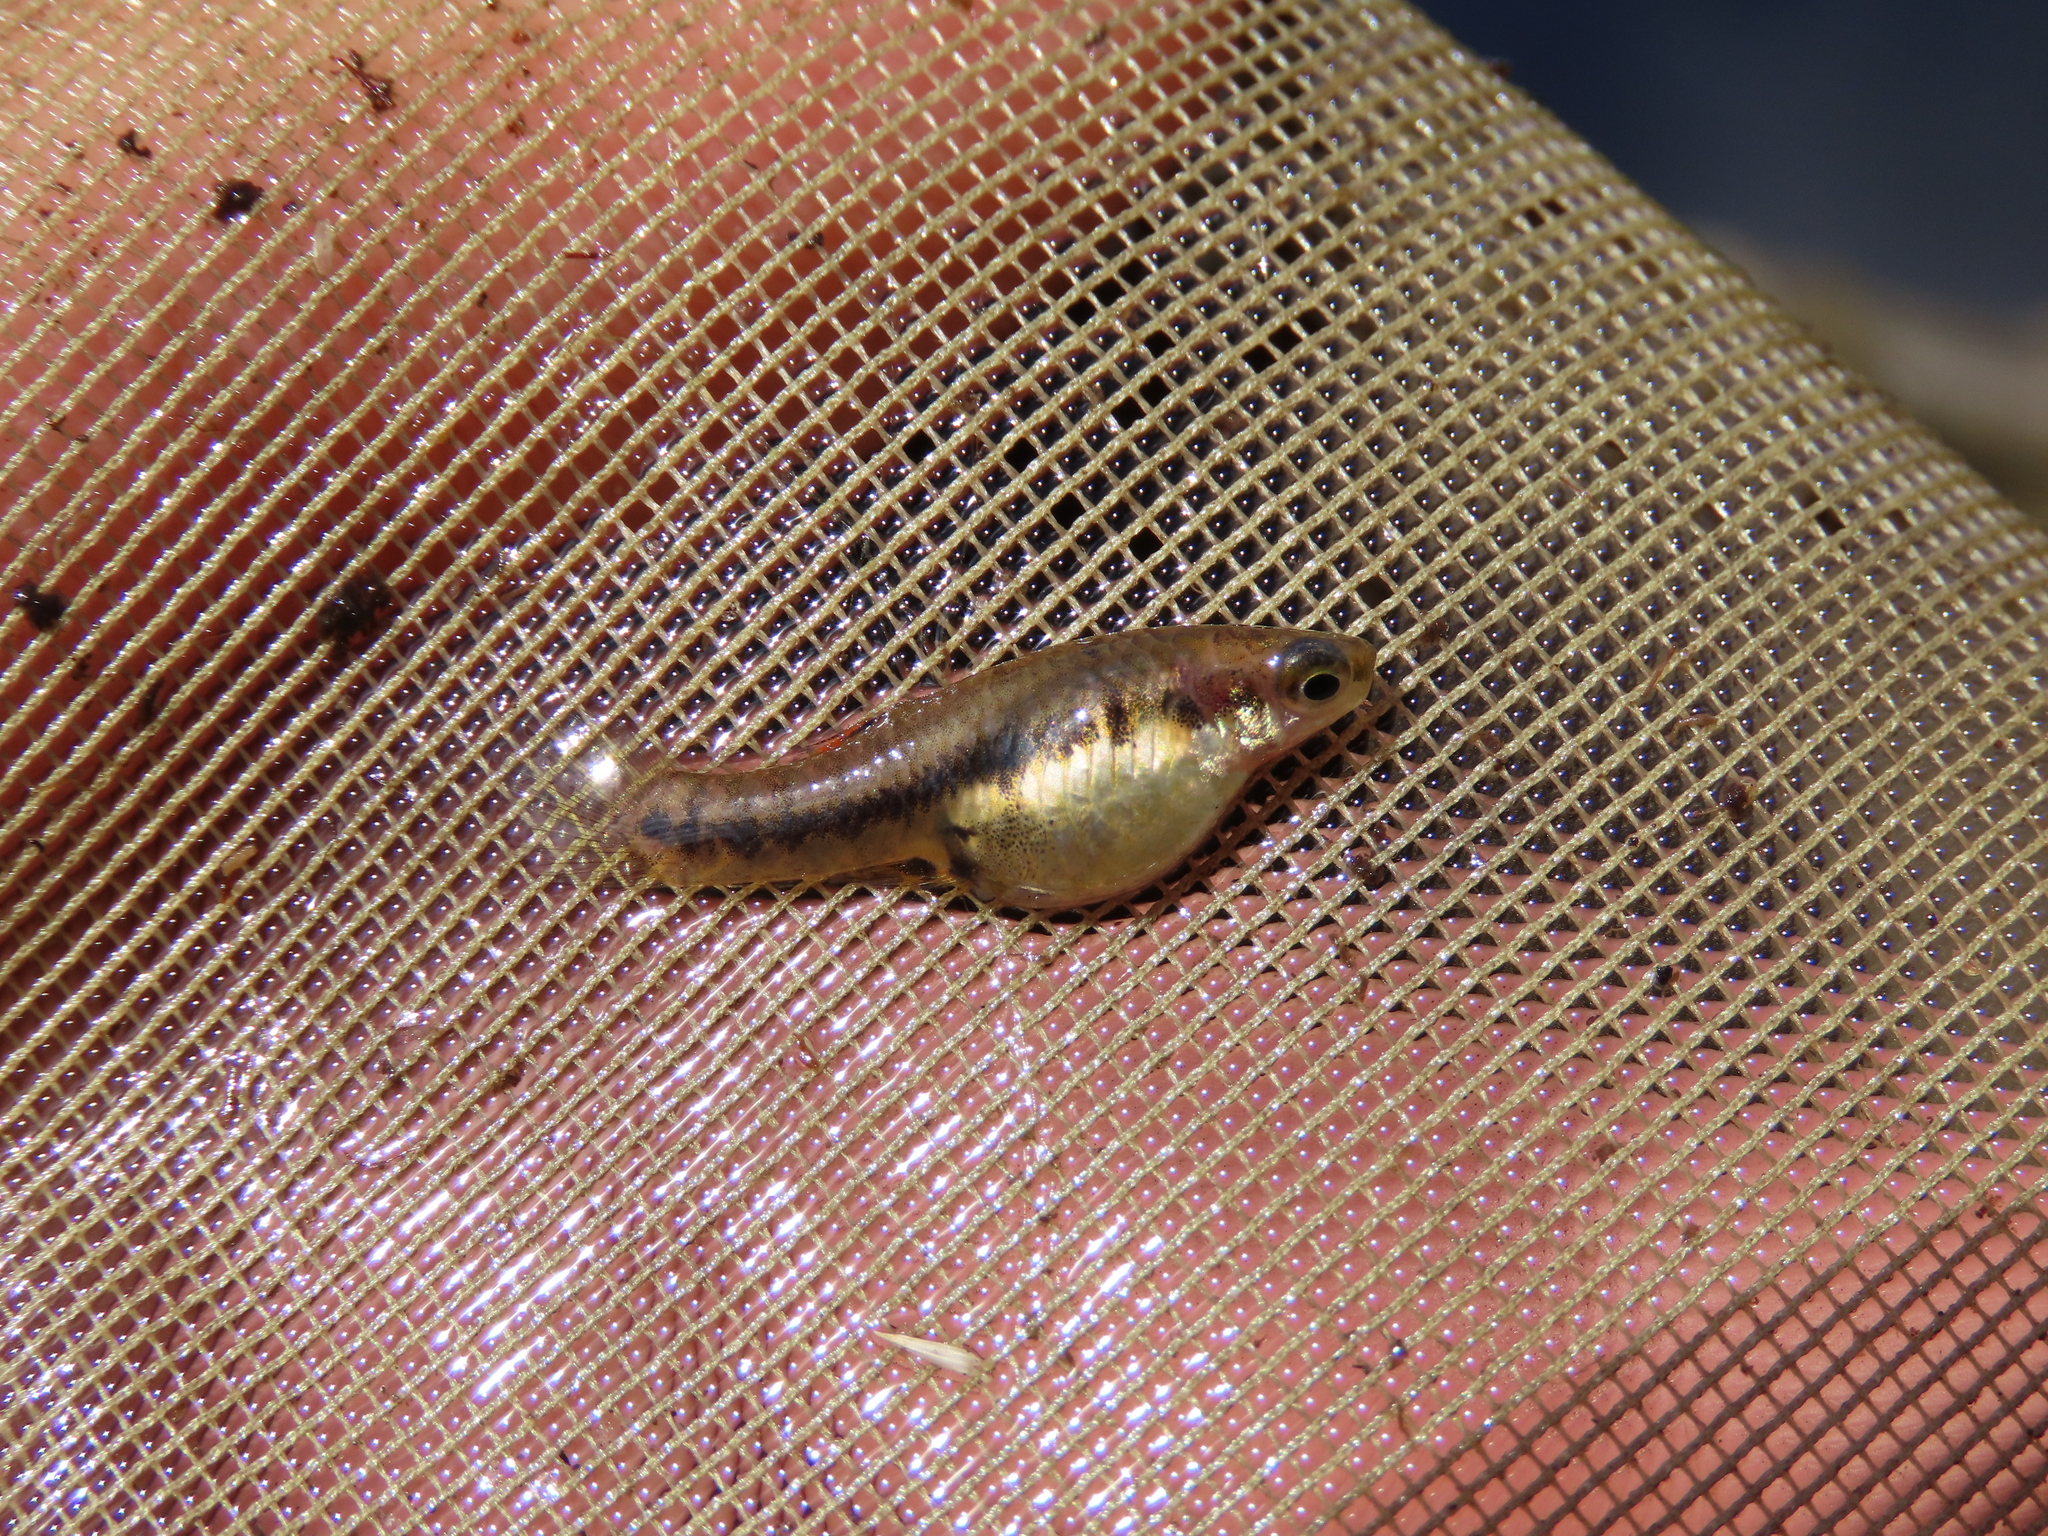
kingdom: Animalia
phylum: Chordata
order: Cyprinodontiformes
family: Poeciliidae
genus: Heterandria
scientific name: Heterandria formosa
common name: Least killifish
